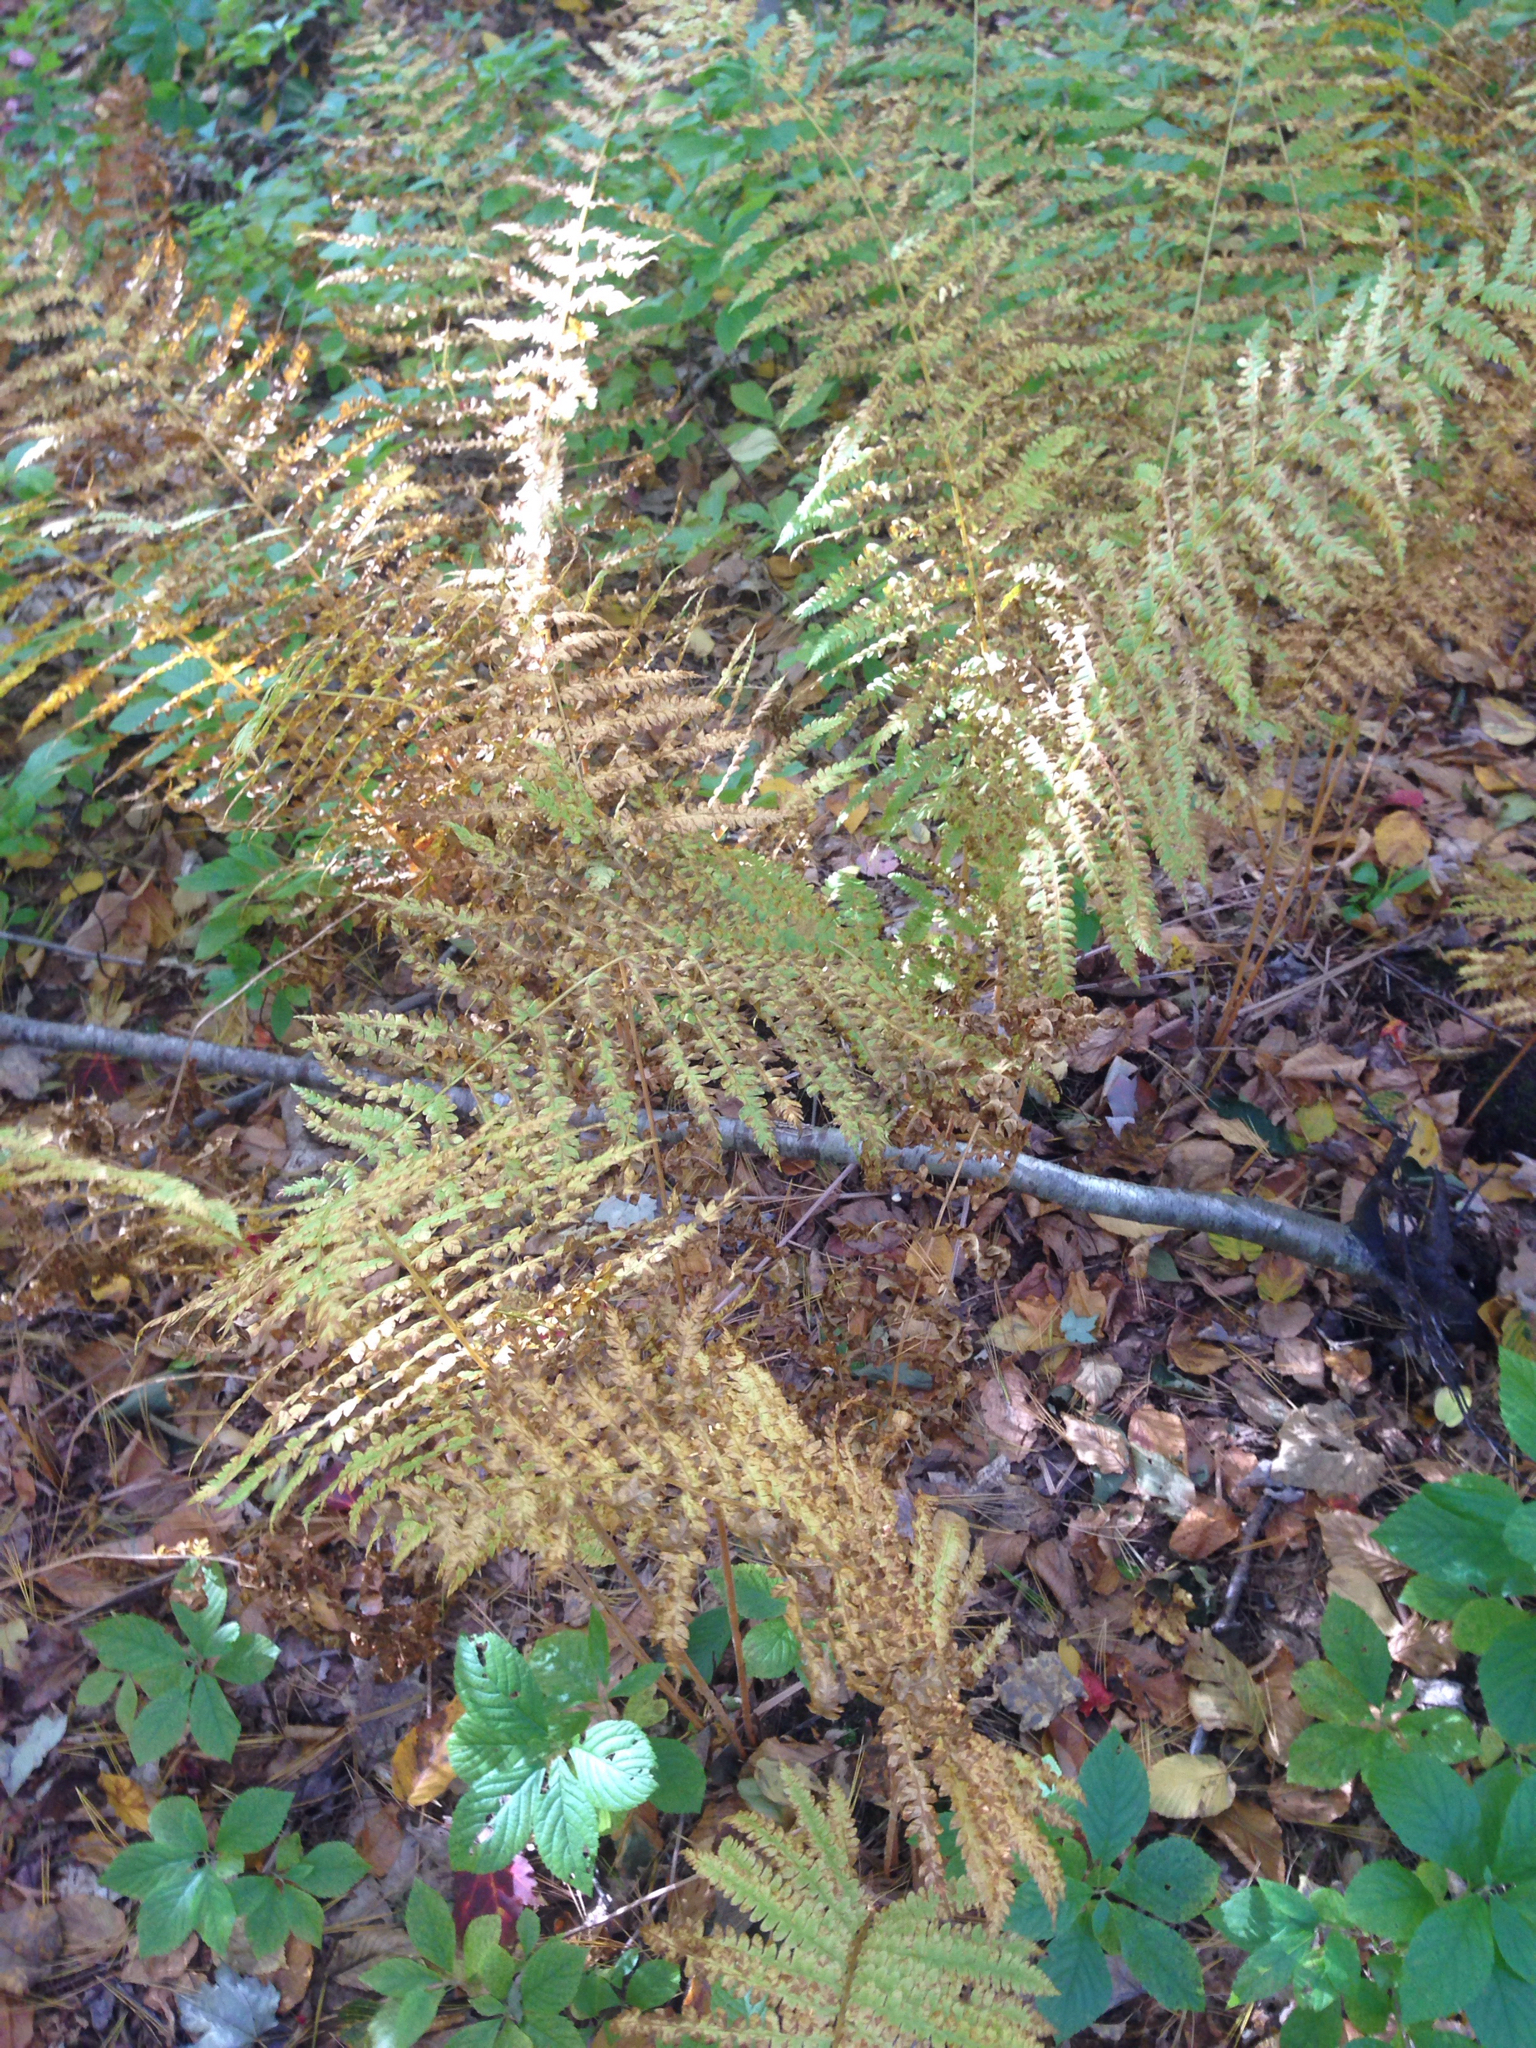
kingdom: Plantae
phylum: Tracheophyta
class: Polypodiopsida
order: Osmundales
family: Osmundaceae
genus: Osmundastrum
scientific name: Osmundastrum cinnamomeum
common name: Cinnamon fern
